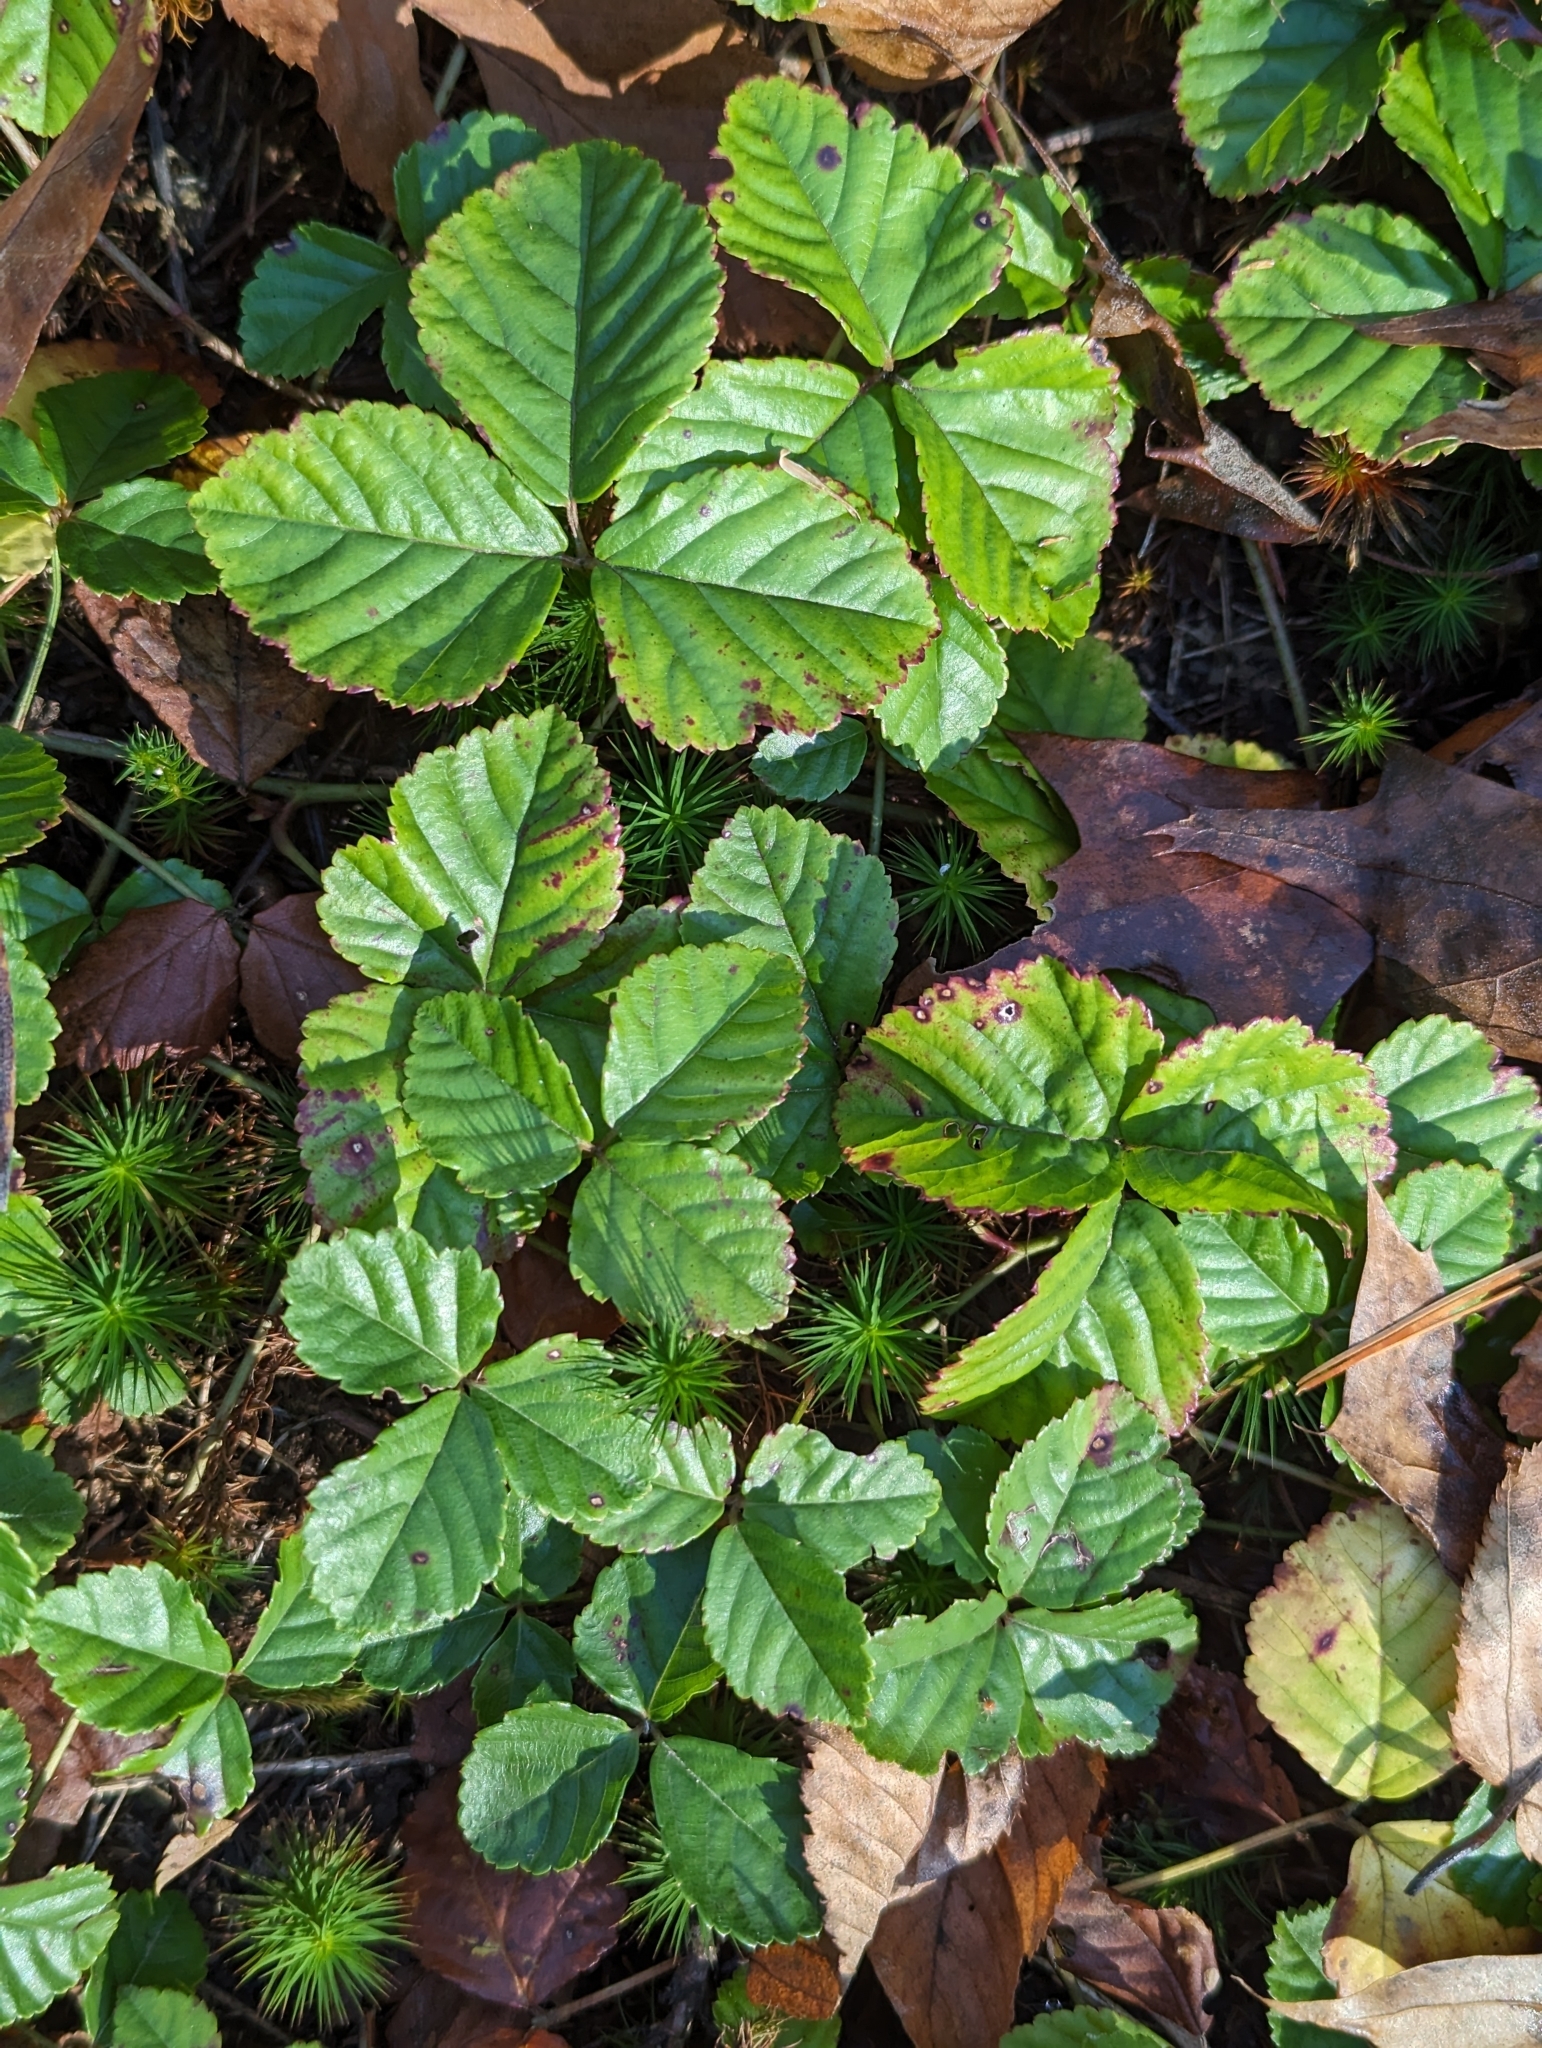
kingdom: Plantae
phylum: Tracheophyta
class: Magnoliopsida
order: Rosales
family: Rosaceae
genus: Rubus
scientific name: Rubus hispidus
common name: Running blackberry
